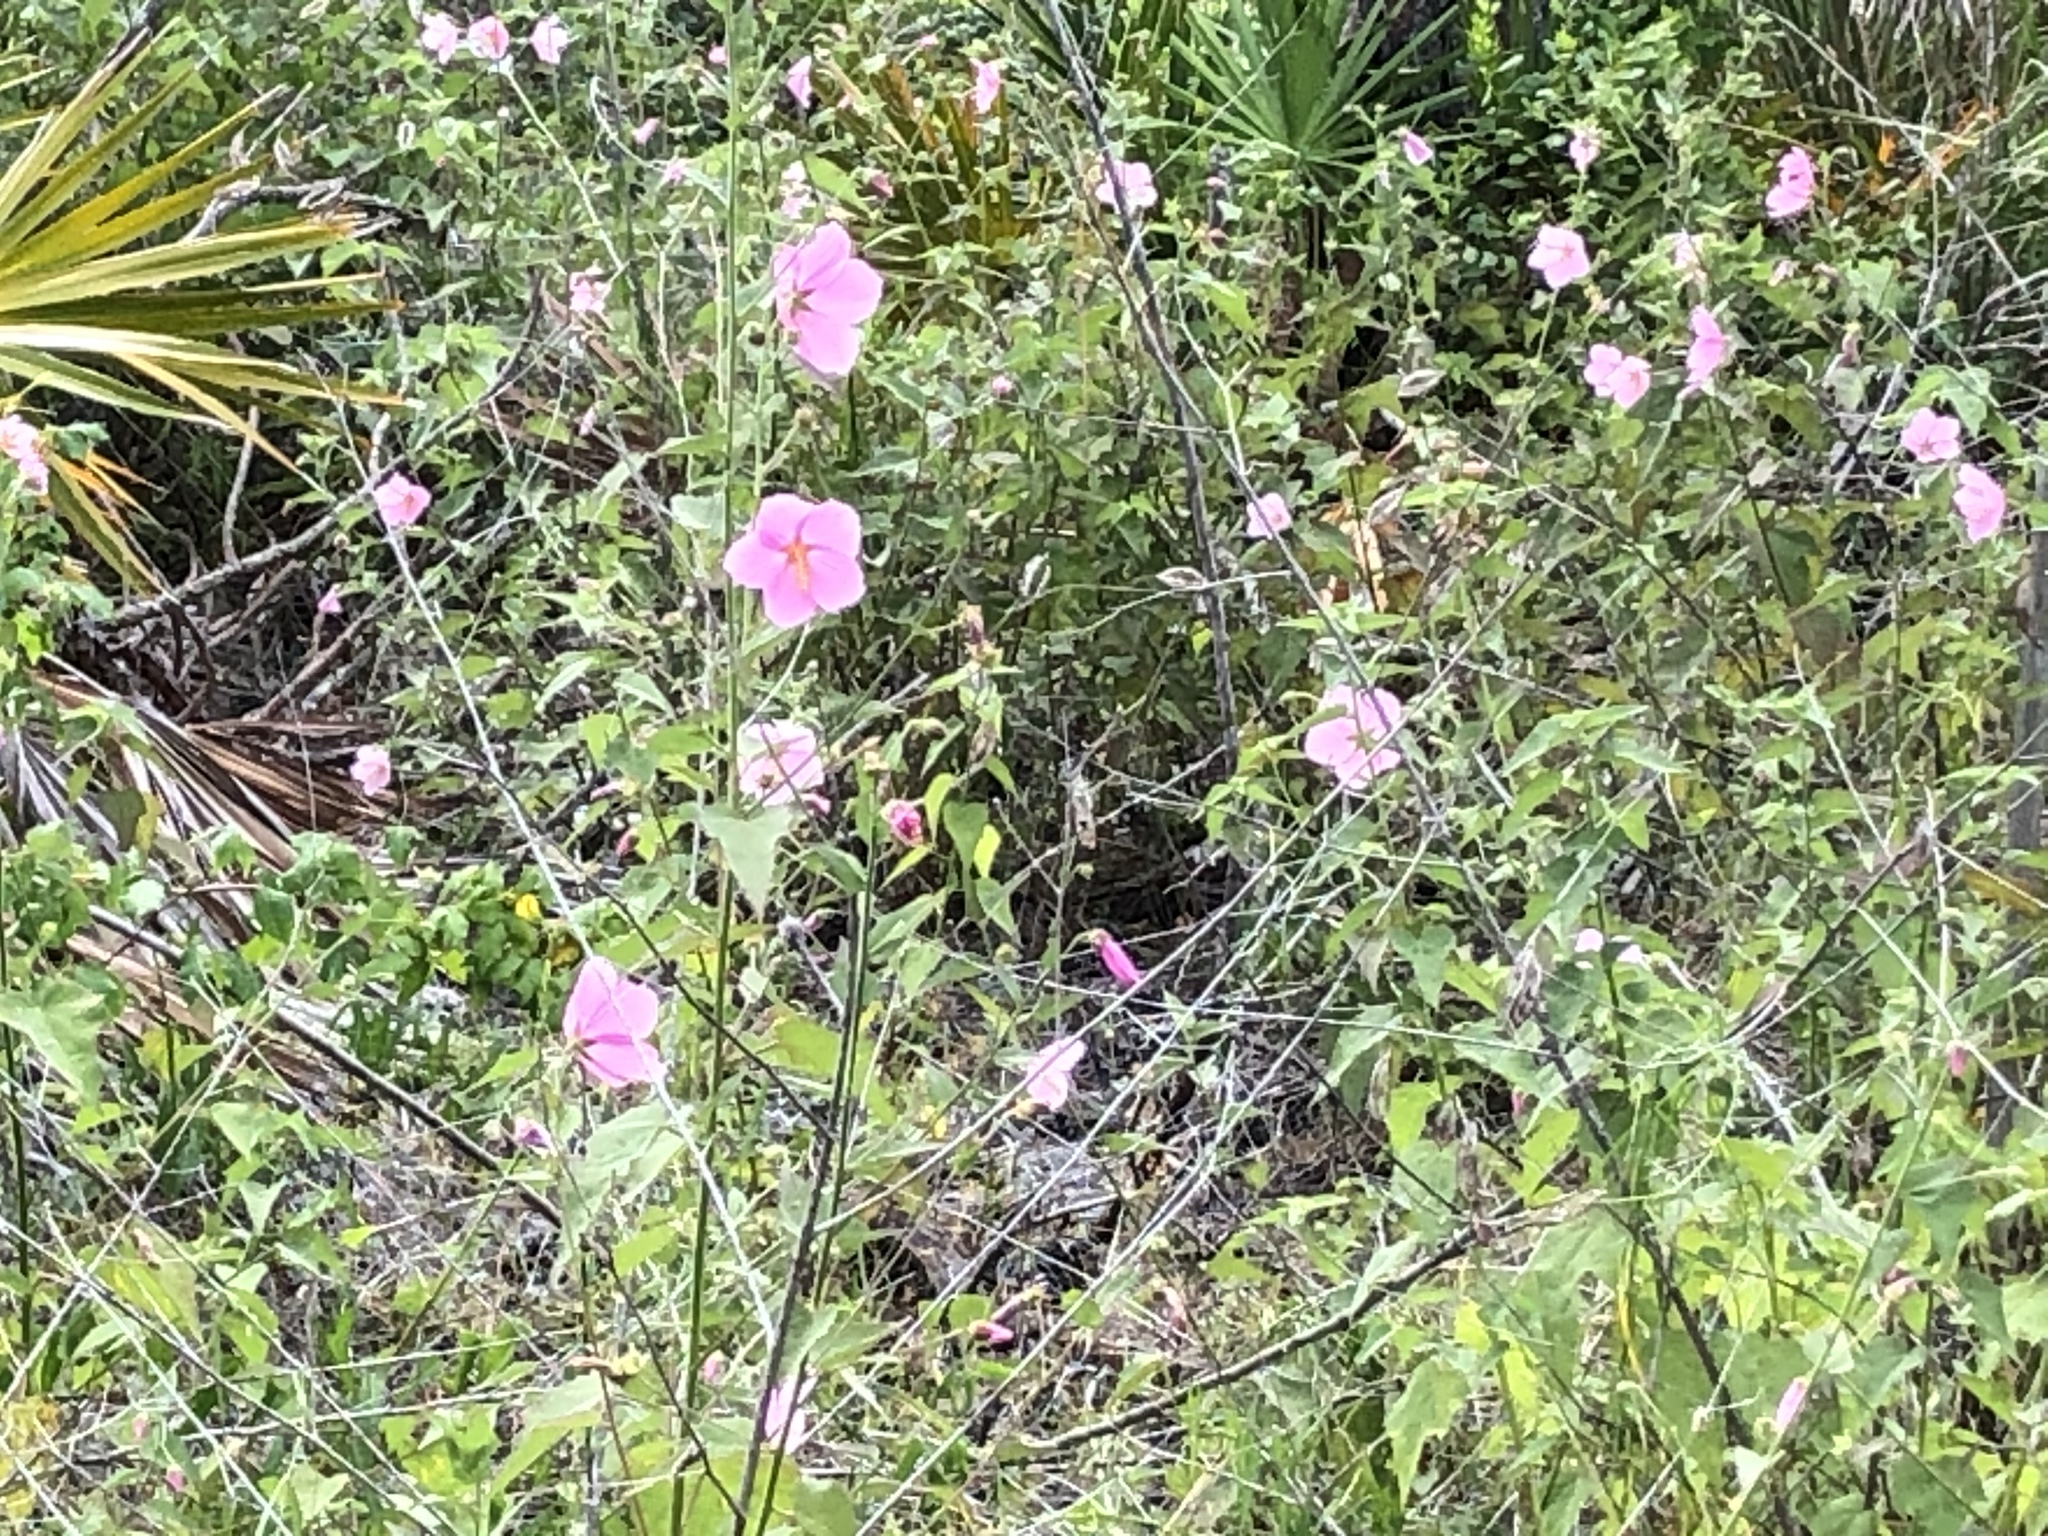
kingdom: Plantae
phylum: Tracheophyta
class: Magnoliopsida
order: Malvales
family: Malvaceae
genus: Kosteletzkya
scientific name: Kosteletzkya pentacarpos
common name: Virginia saltmarsh mallow
